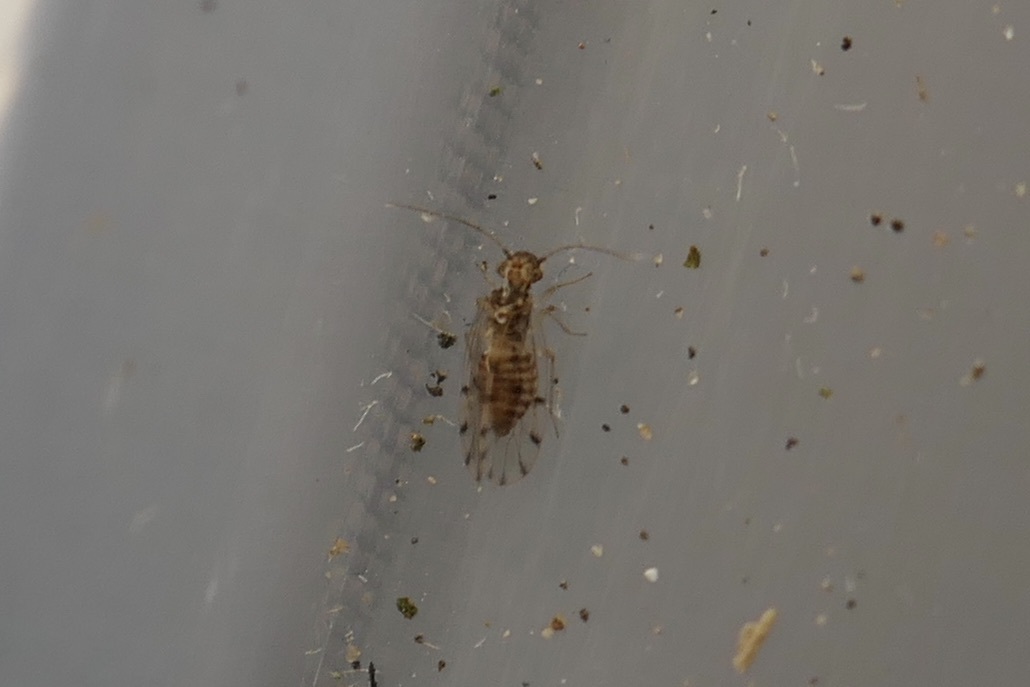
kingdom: Animalia
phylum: Arthropoda
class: Insecta
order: Psocodea
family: Ectopsocidae
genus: Ectopsocus
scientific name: Ectopsocus petersi
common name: Medium-sized bark louse
